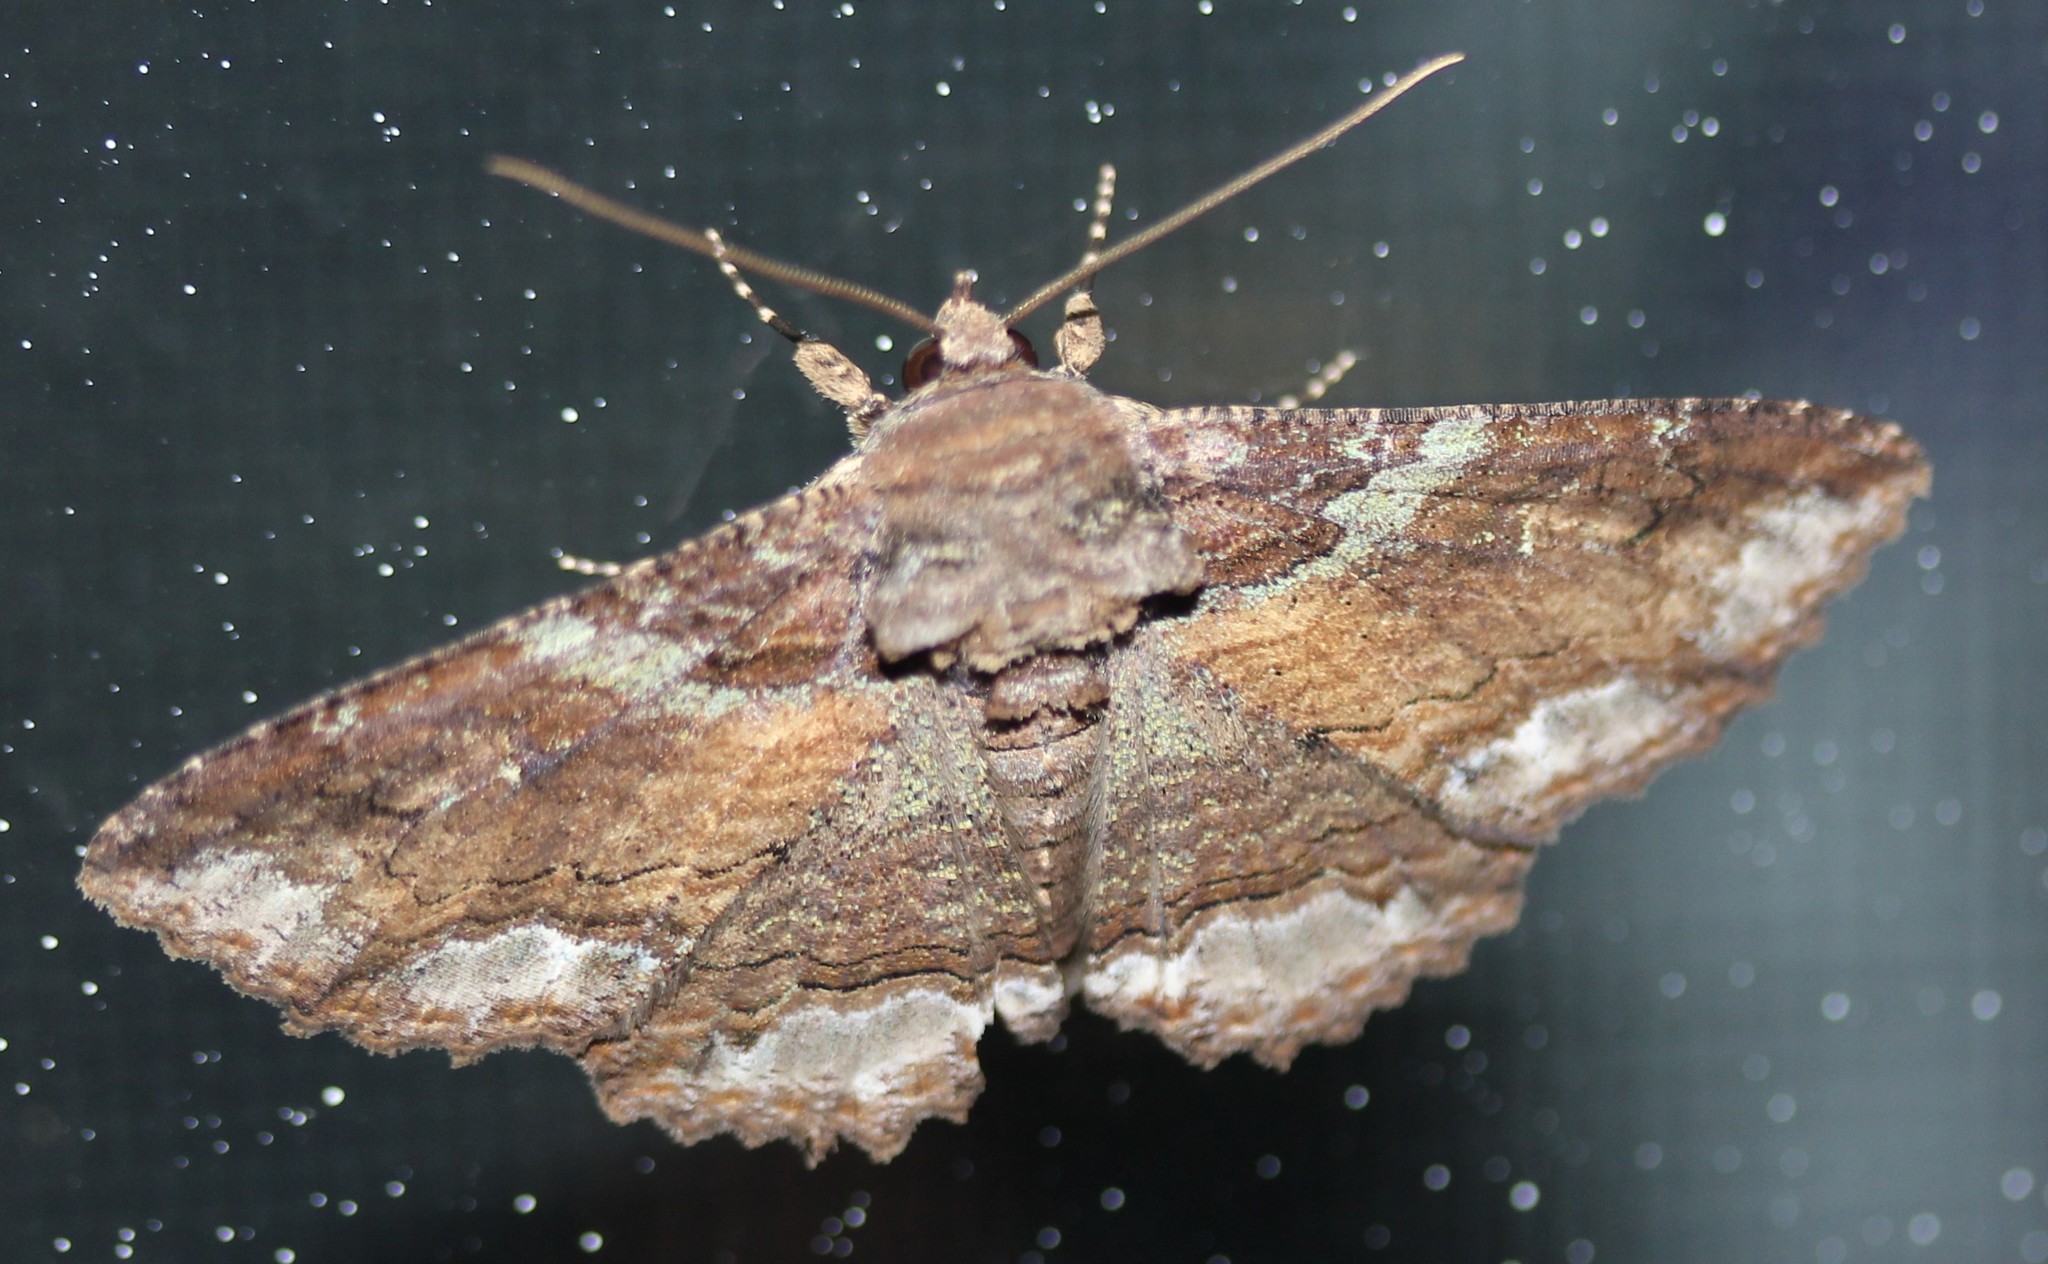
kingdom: Animalia
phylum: Arthropoda
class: Insecta
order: Lepidoptera
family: Erebidae
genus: Zale
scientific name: Zale lunata
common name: Lunate zale moth
